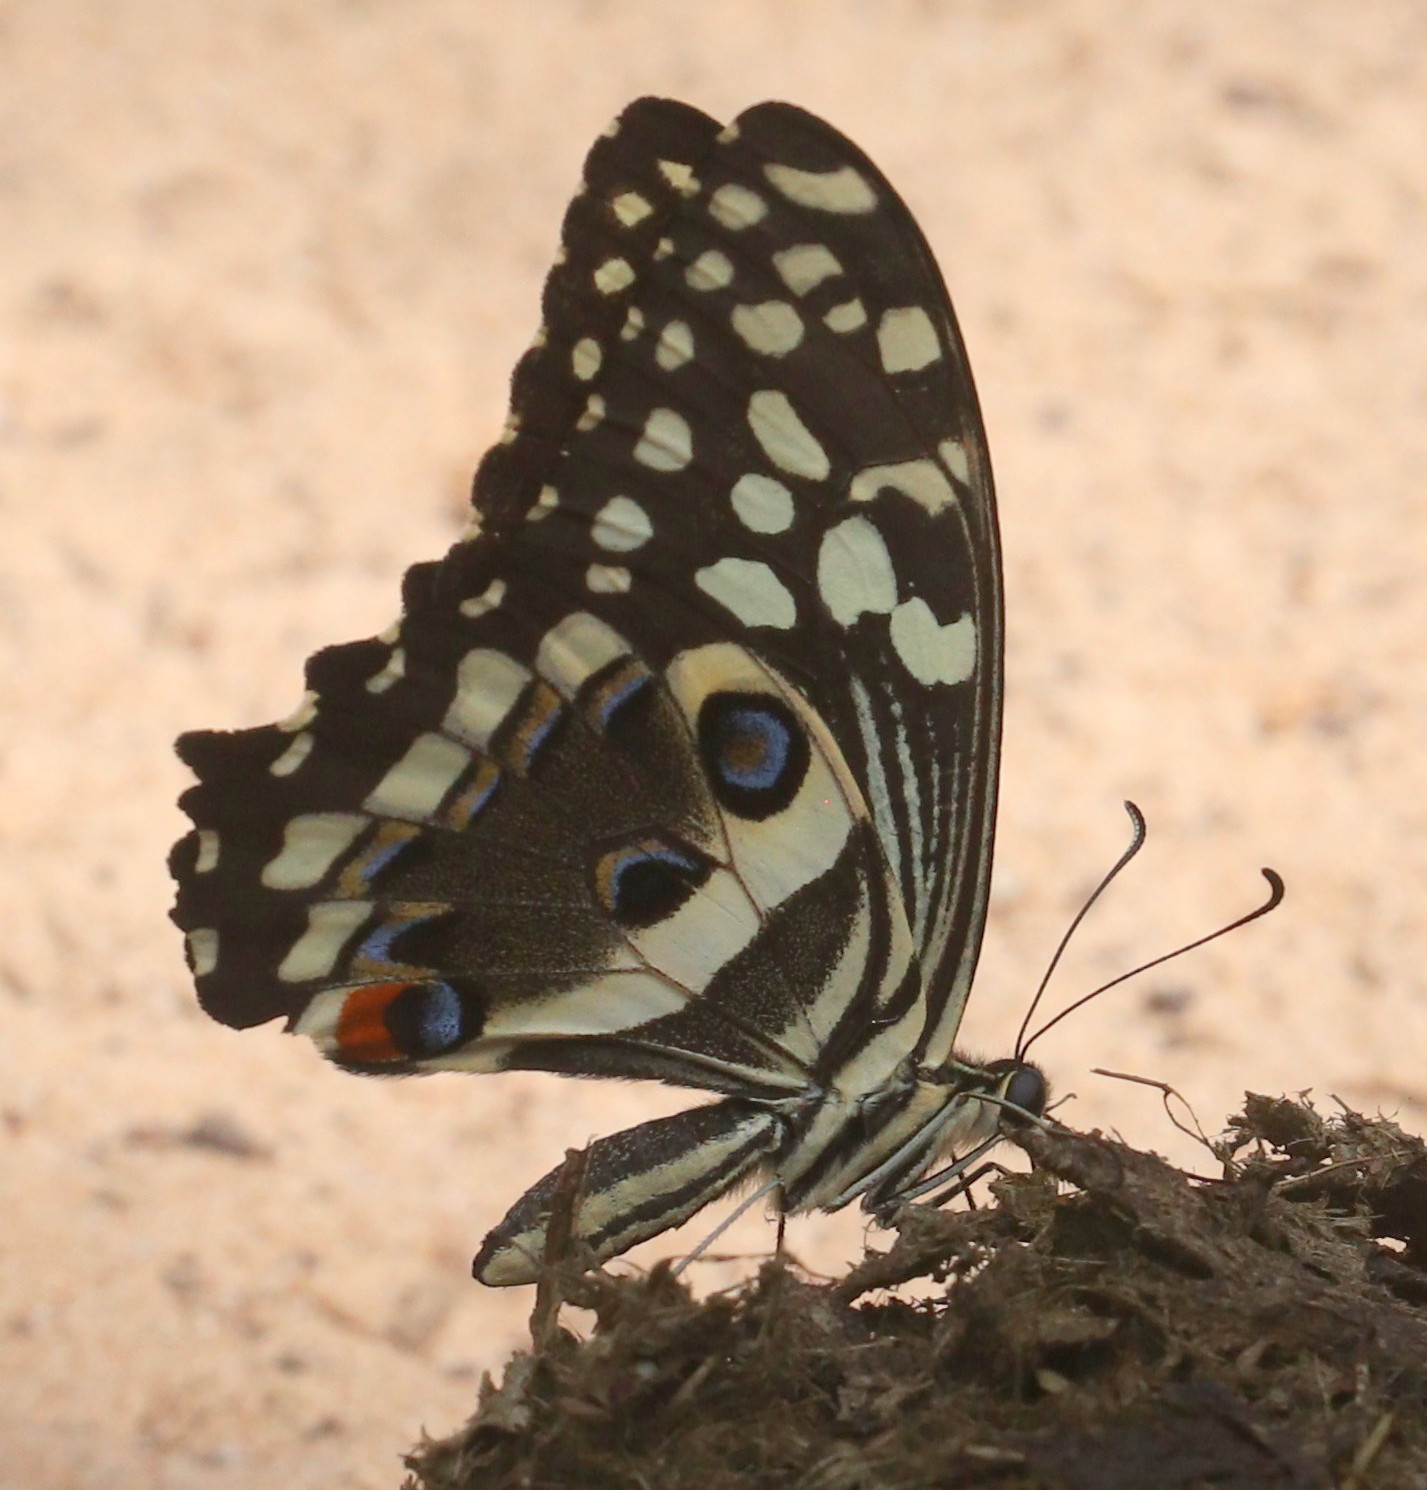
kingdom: Animalia
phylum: Arthropoda
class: Insecta
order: Lepidoptera
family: Papilionidae
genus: Papilio
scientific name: Papilio demodocus
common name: Christmas butterfly
